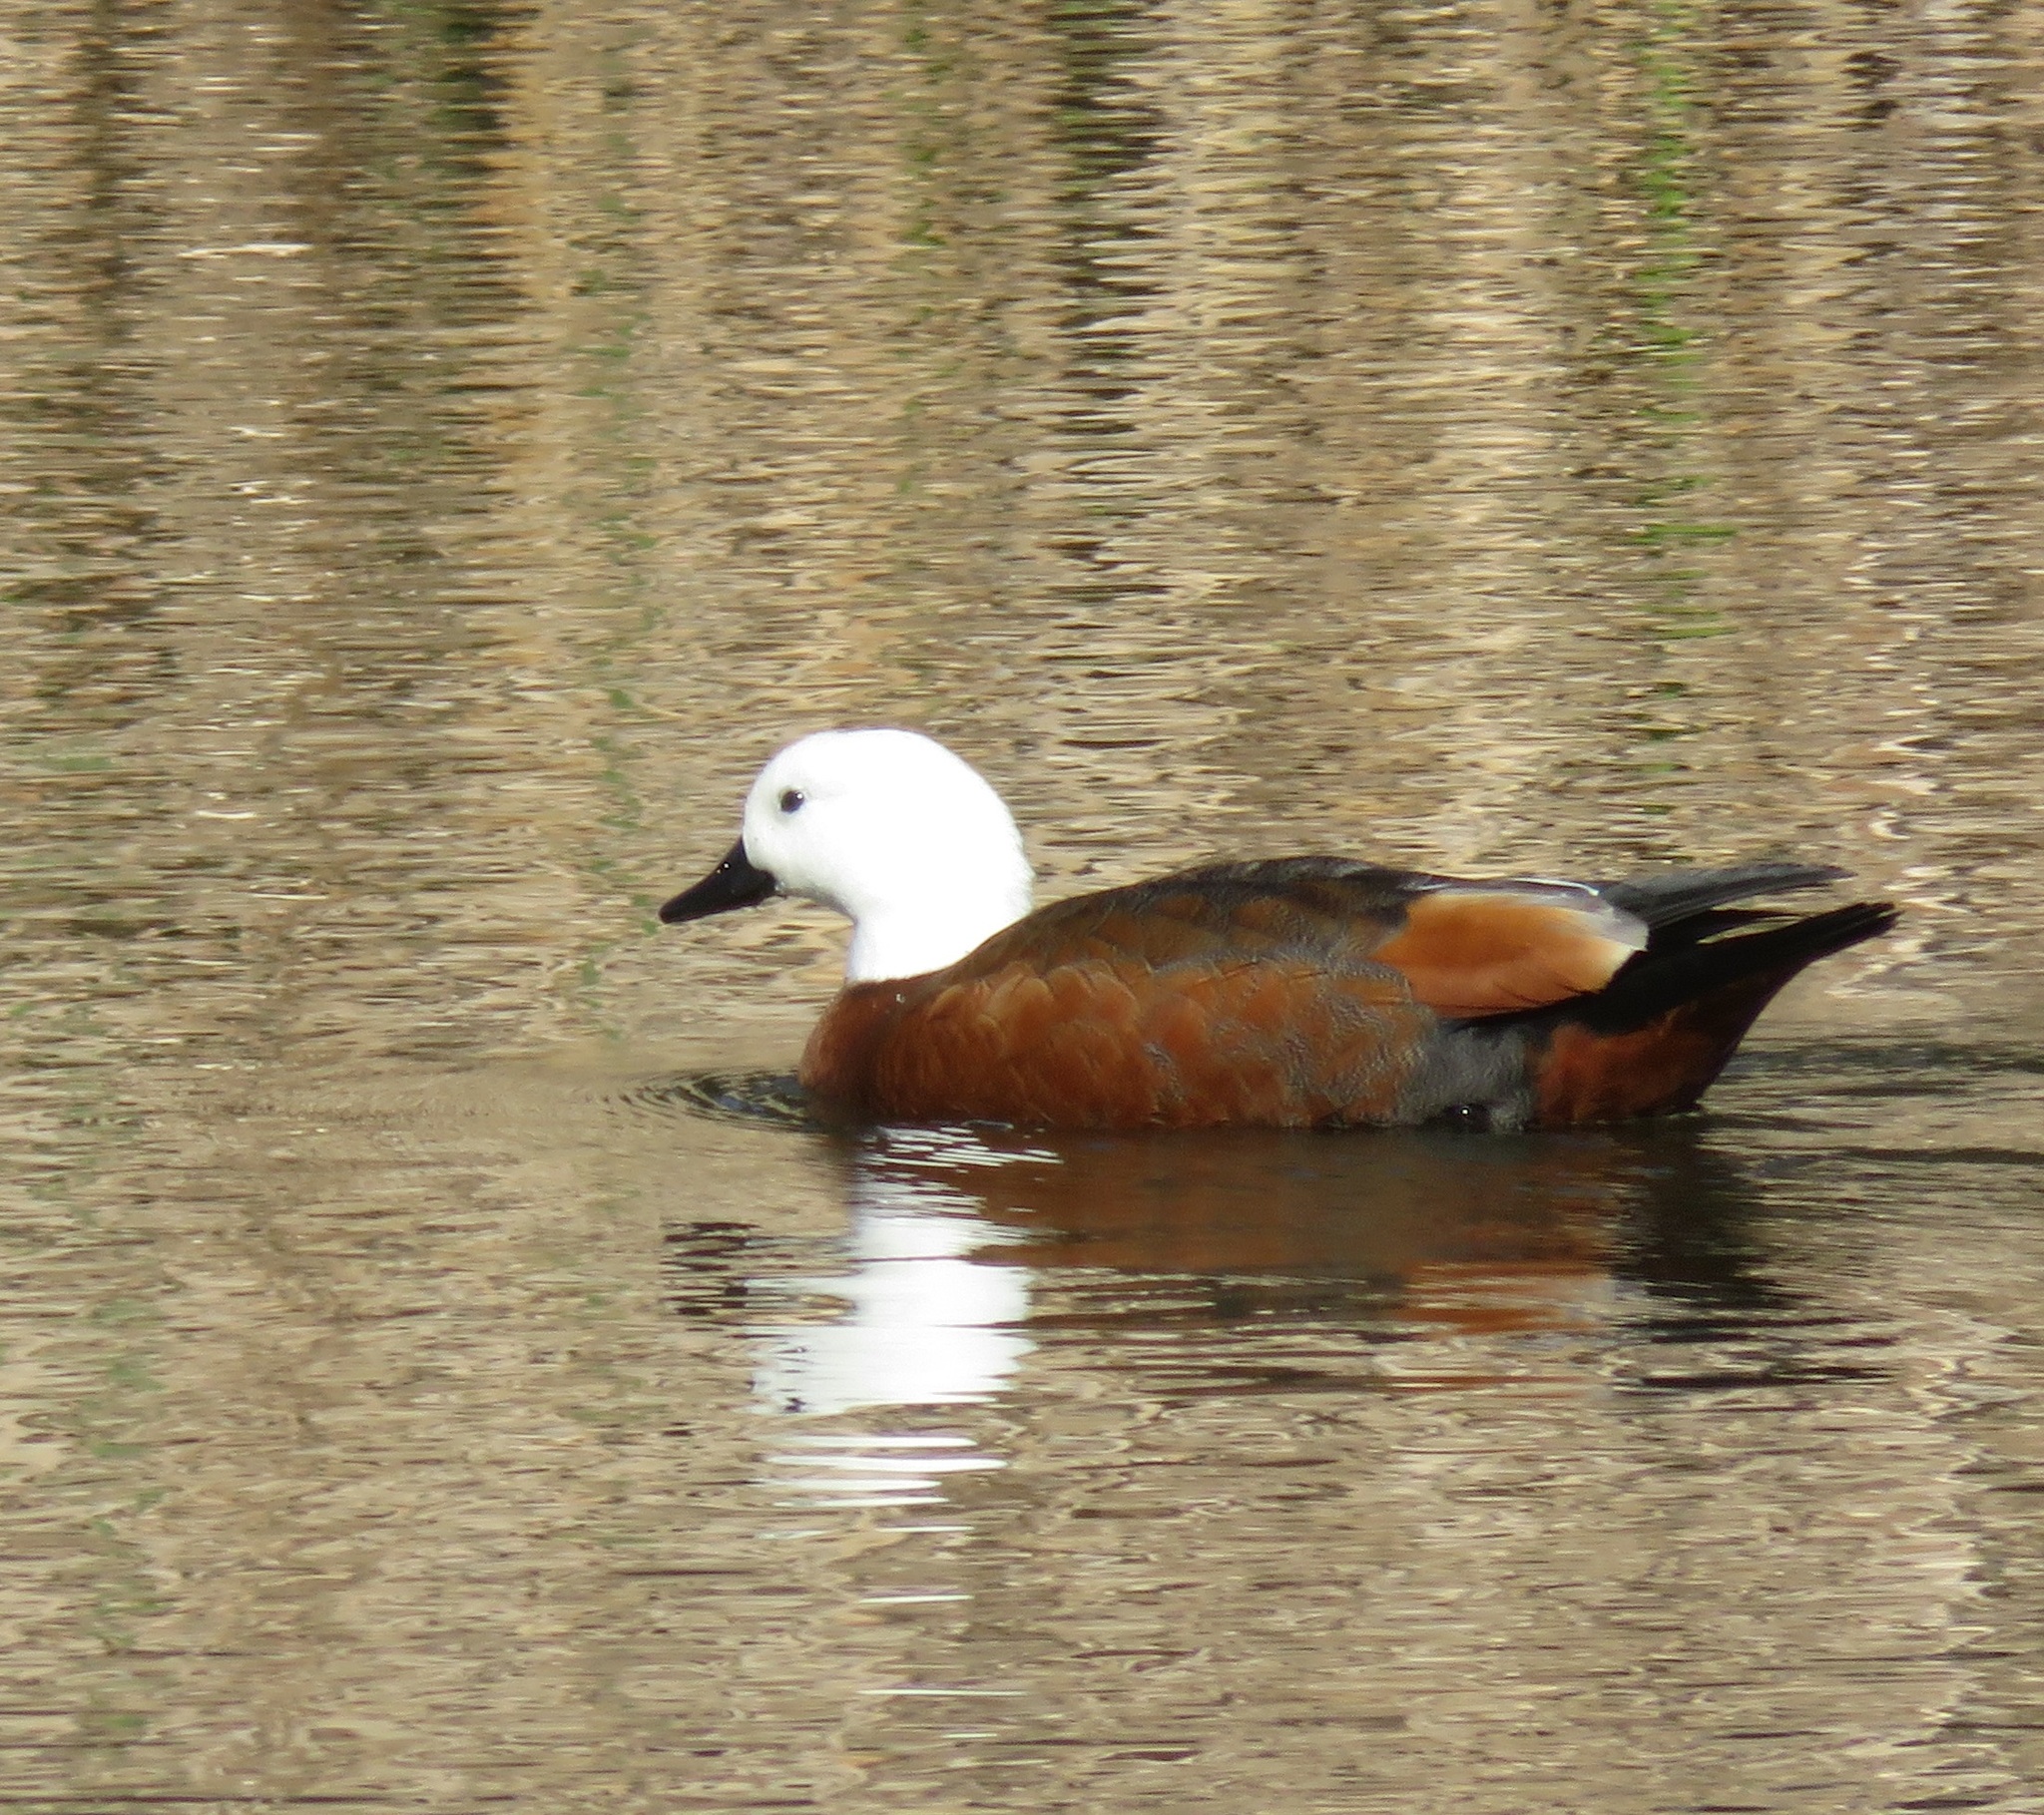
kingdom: Animalia
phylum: Chordata
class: Aves
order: Anseriformes
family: Anatidae
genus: Tadorna
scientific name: Tadorna variegata
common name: Paradise shelduck
